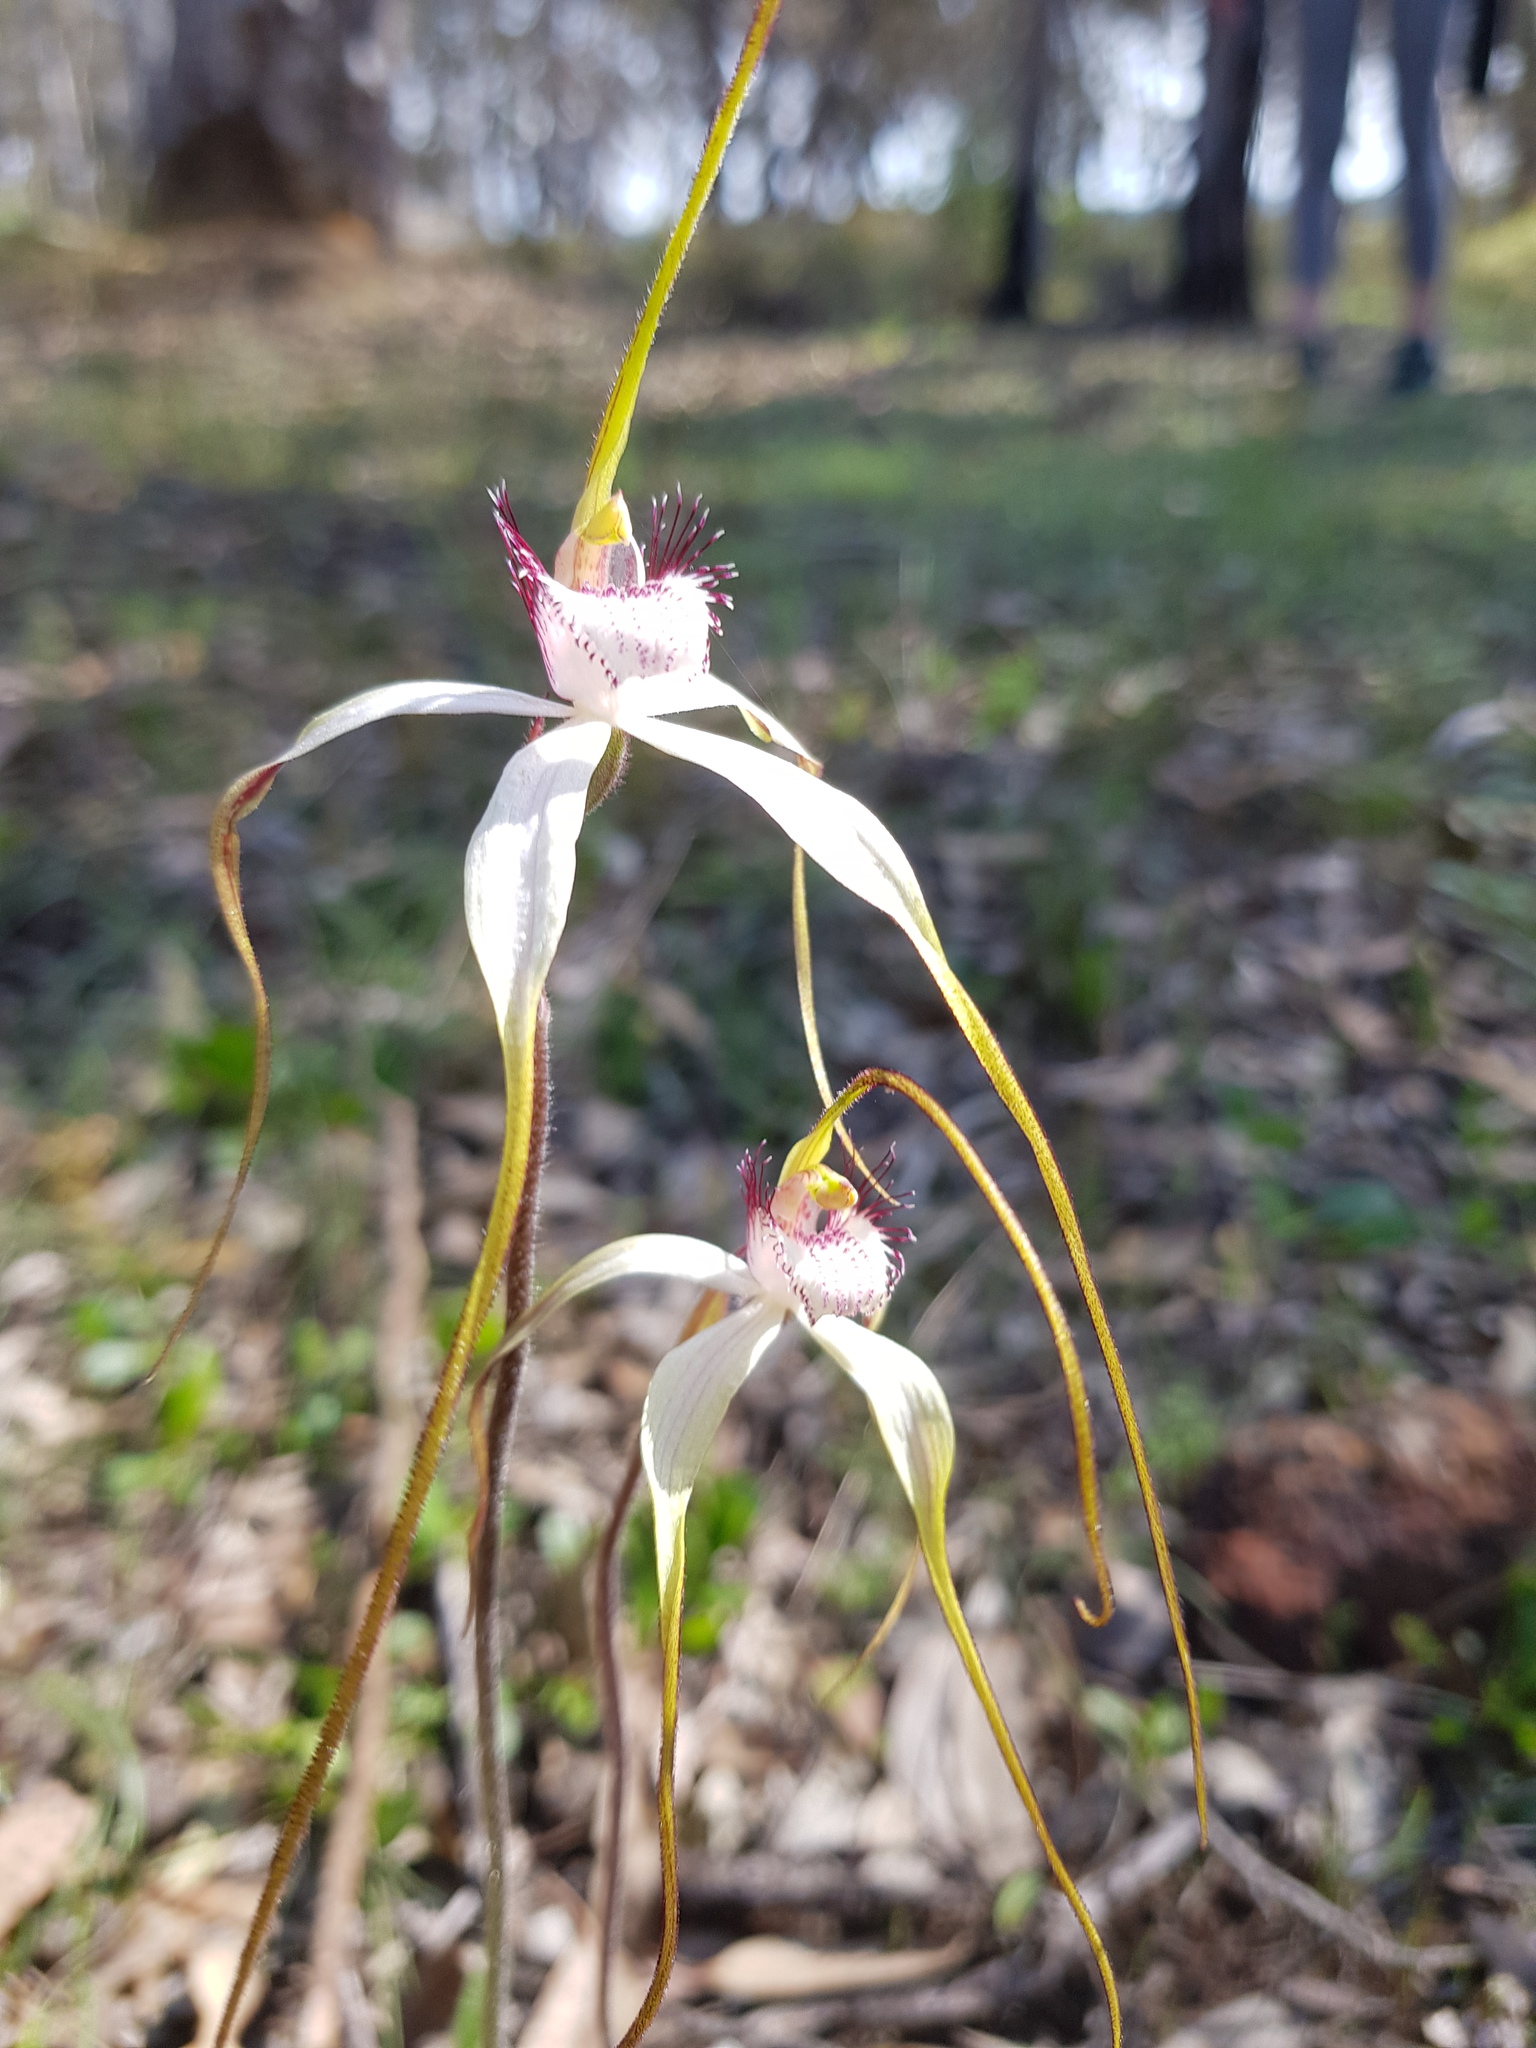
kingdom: Plantae
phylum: Tracheophyta
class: Liliopsida
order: Asparagales
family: Orchidaceae
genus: Caladenia
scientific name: Caladenia longicauda
